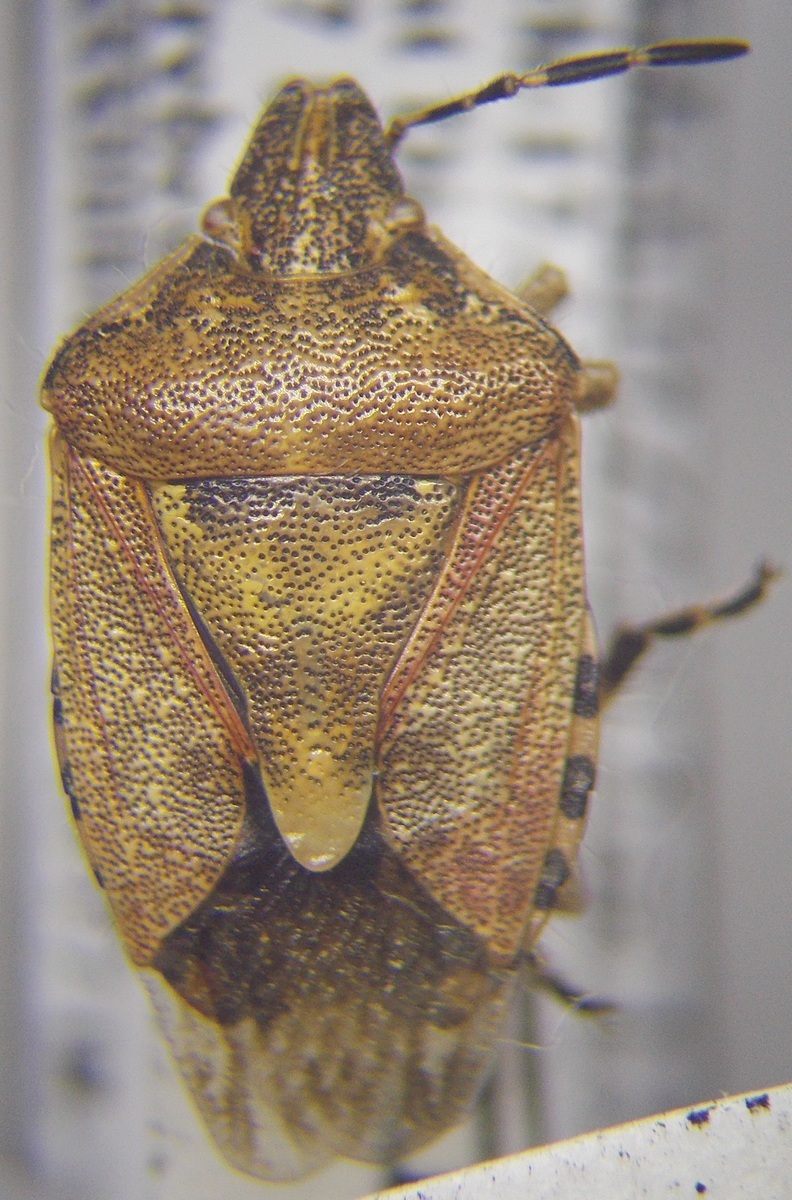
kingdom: Animalia
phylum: Arthropoda
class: Insecta
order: Hemiptera
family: Pentatomidae
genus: Dolycoris
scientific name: Dolycoris baccarum
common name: Sloe bug
